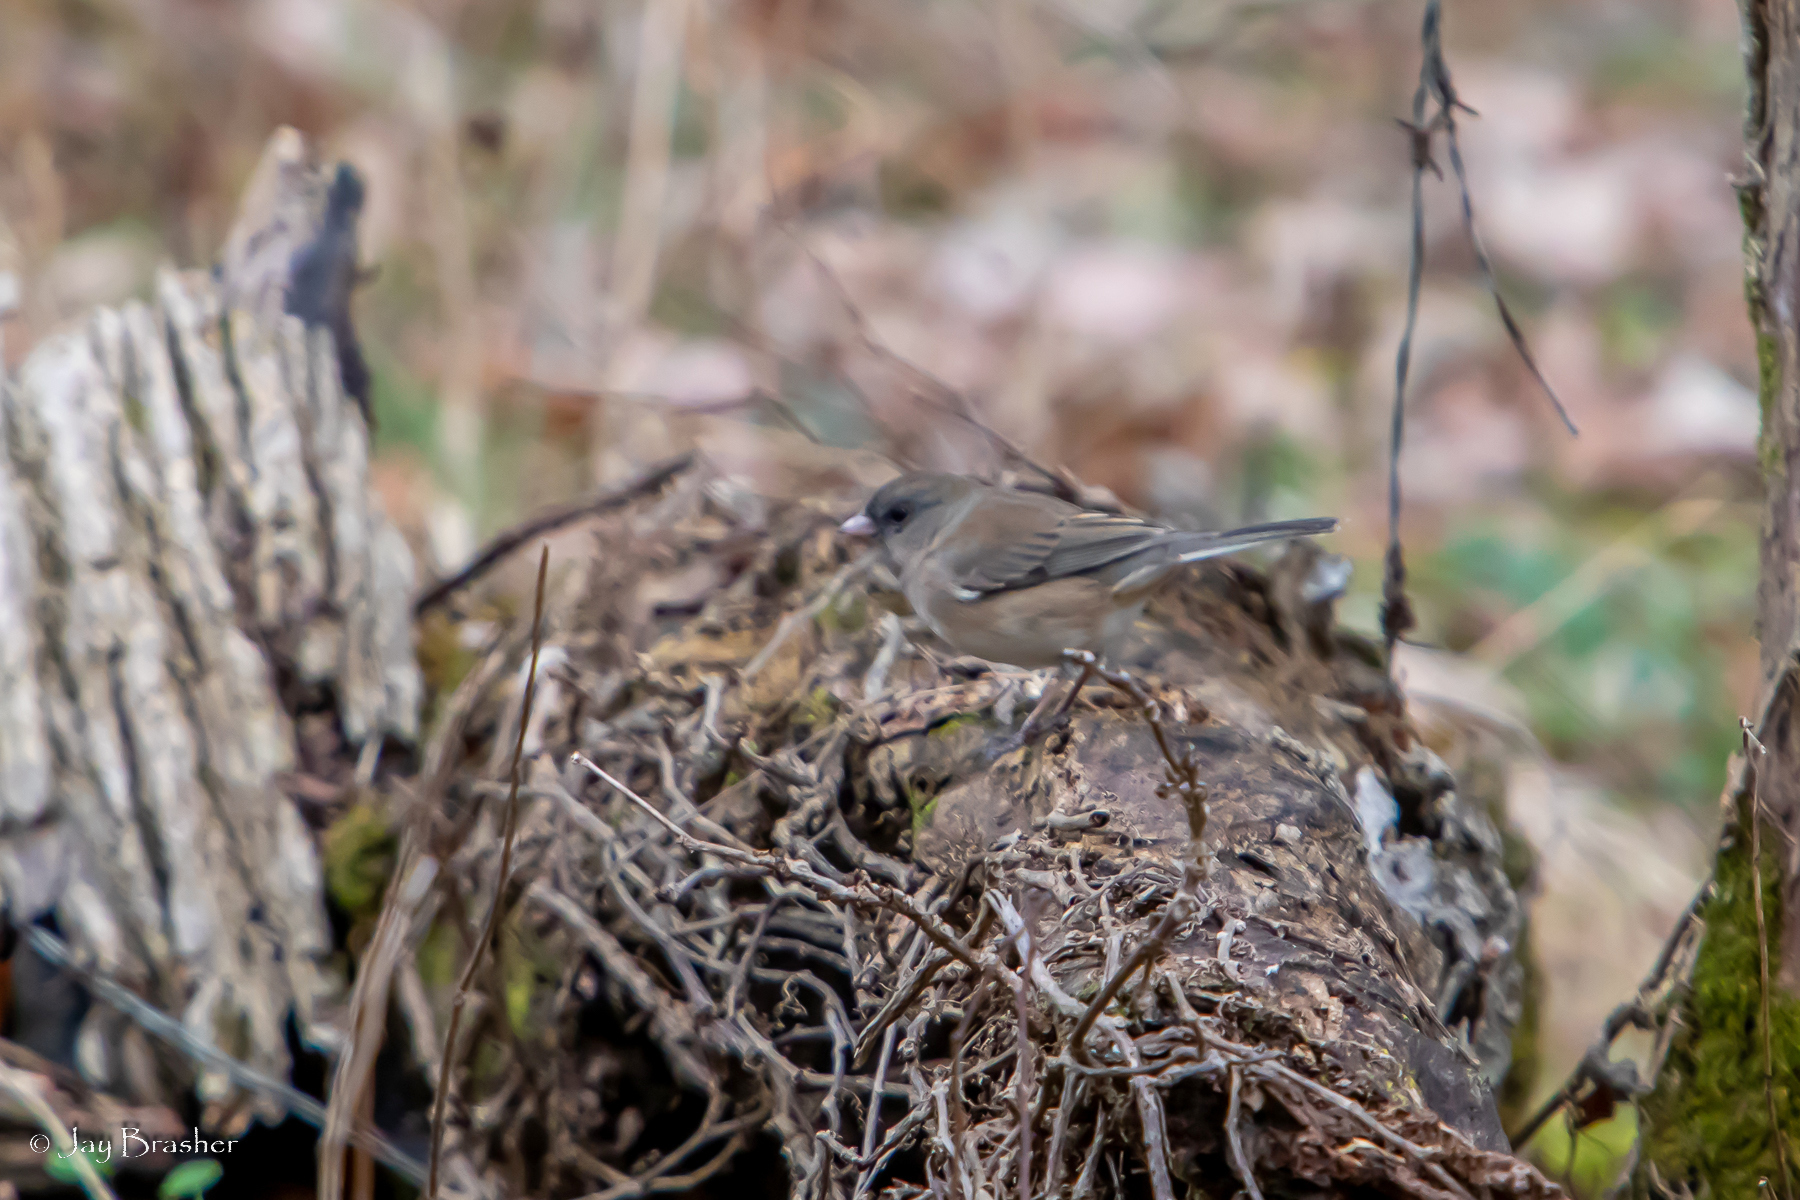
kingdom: Animalia
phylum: Chordata
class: Aves
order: Passeriformes
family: Passerellidae
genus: Junco
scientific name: Junco hyemalis
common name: Dark-eyed junco
